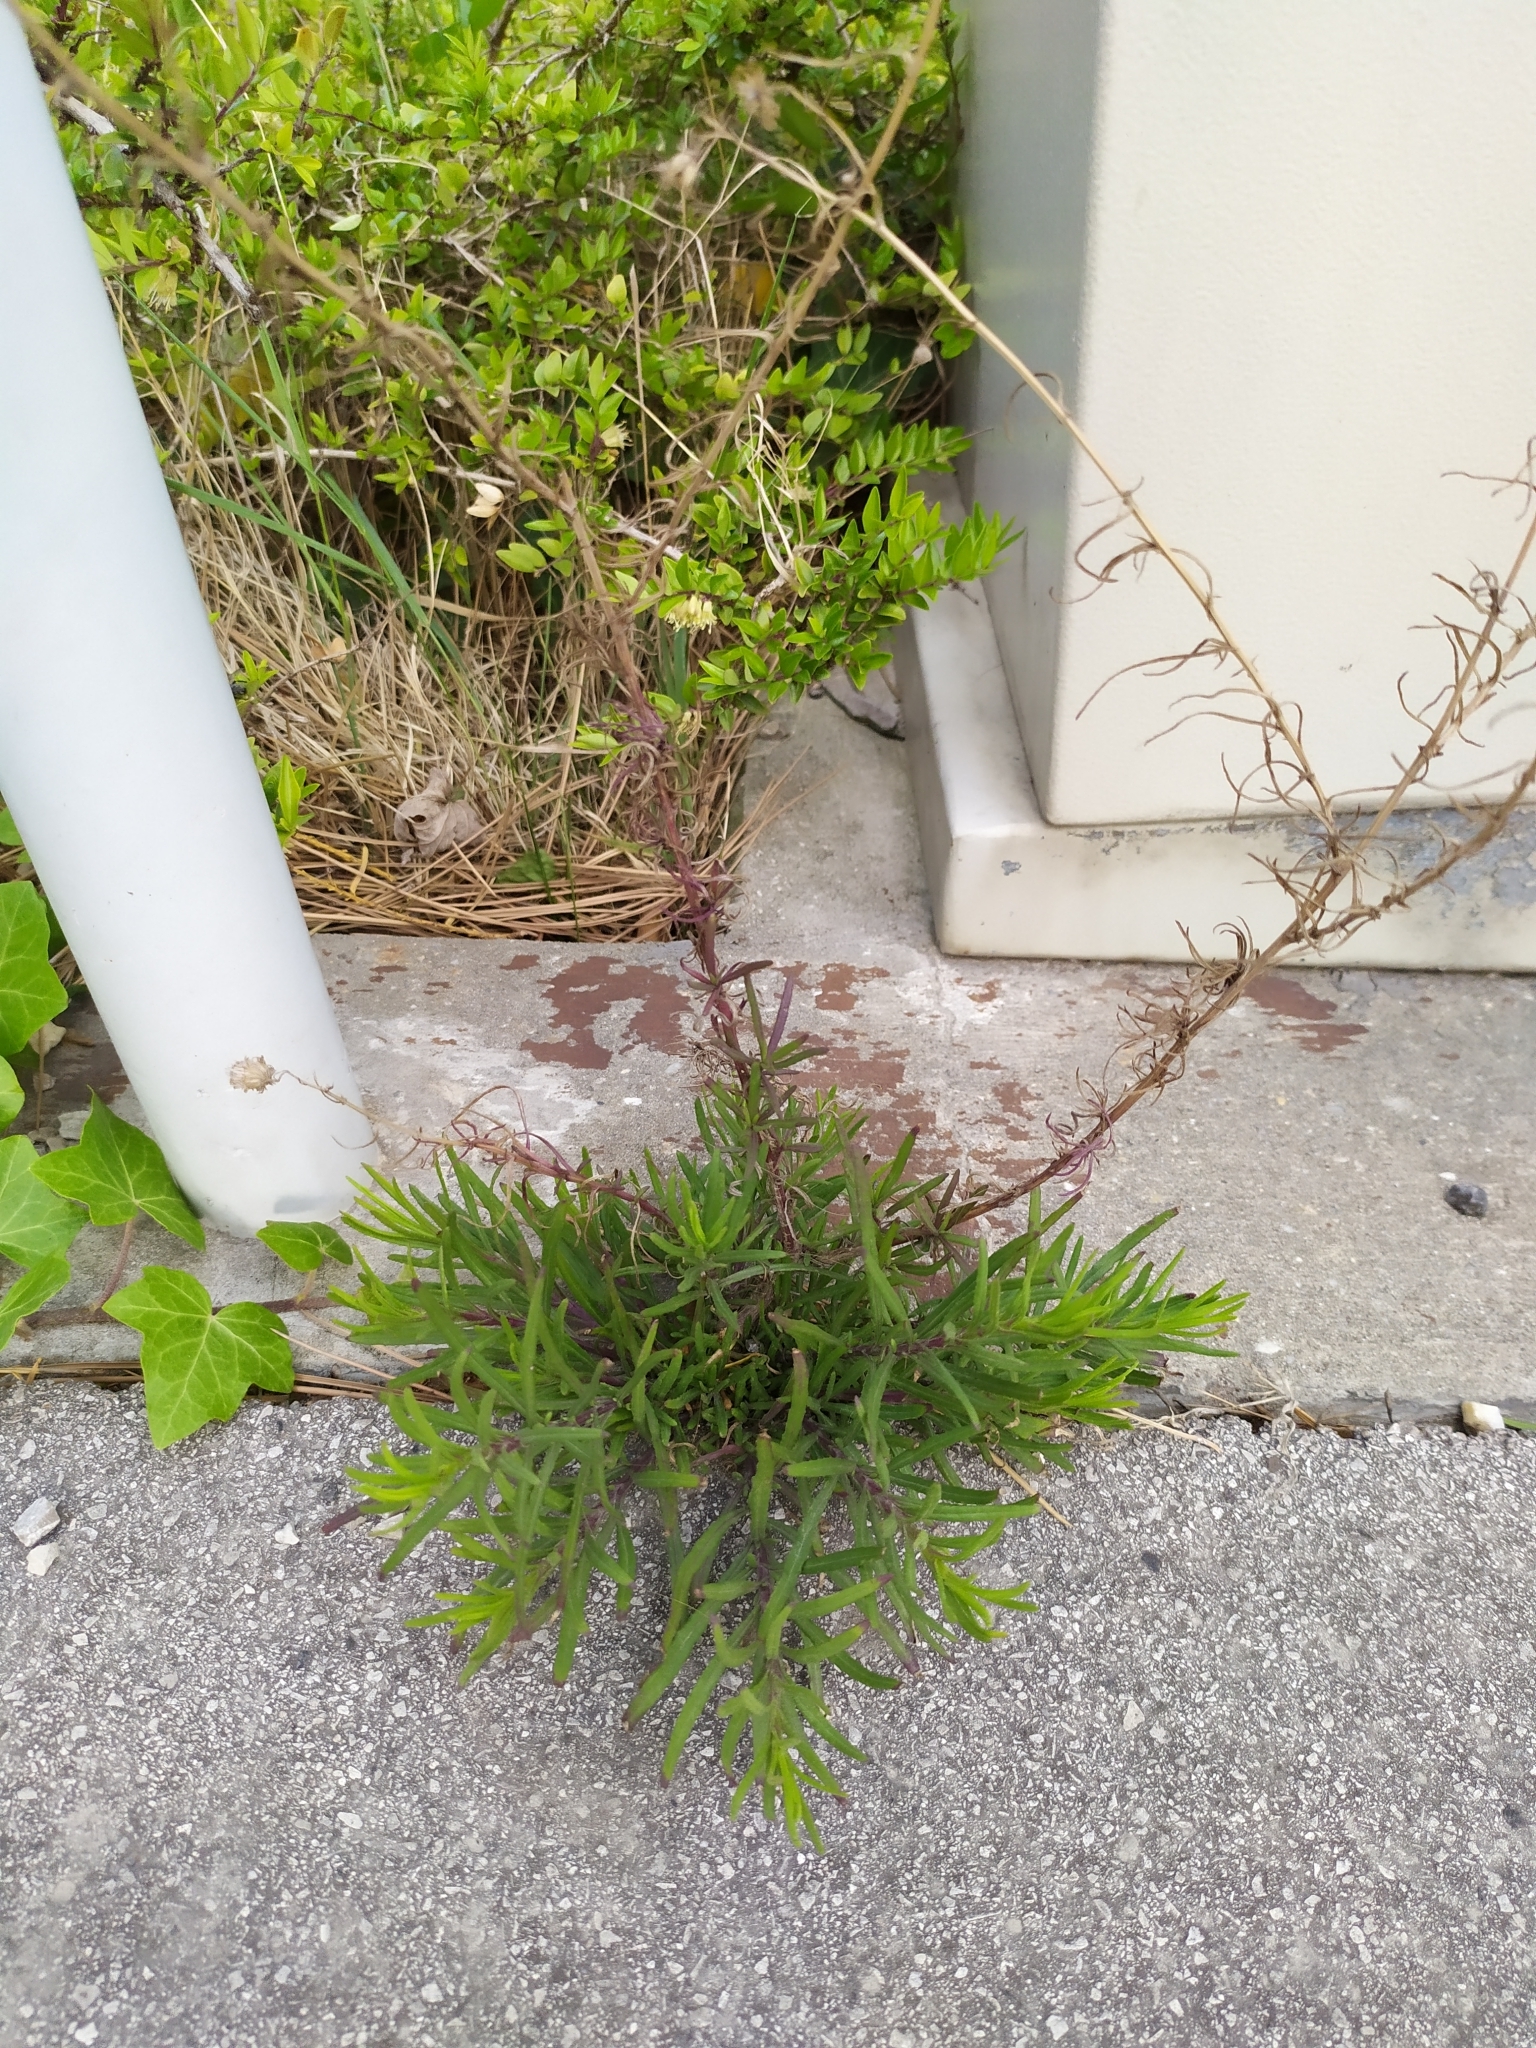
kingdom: Plantae
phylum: Tracheophyta
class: Magnoliopsida
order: Asterales
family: Asteraceae
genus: Senecio
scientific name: Senecio inaequidens
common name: Narrow-leaved ragwort
